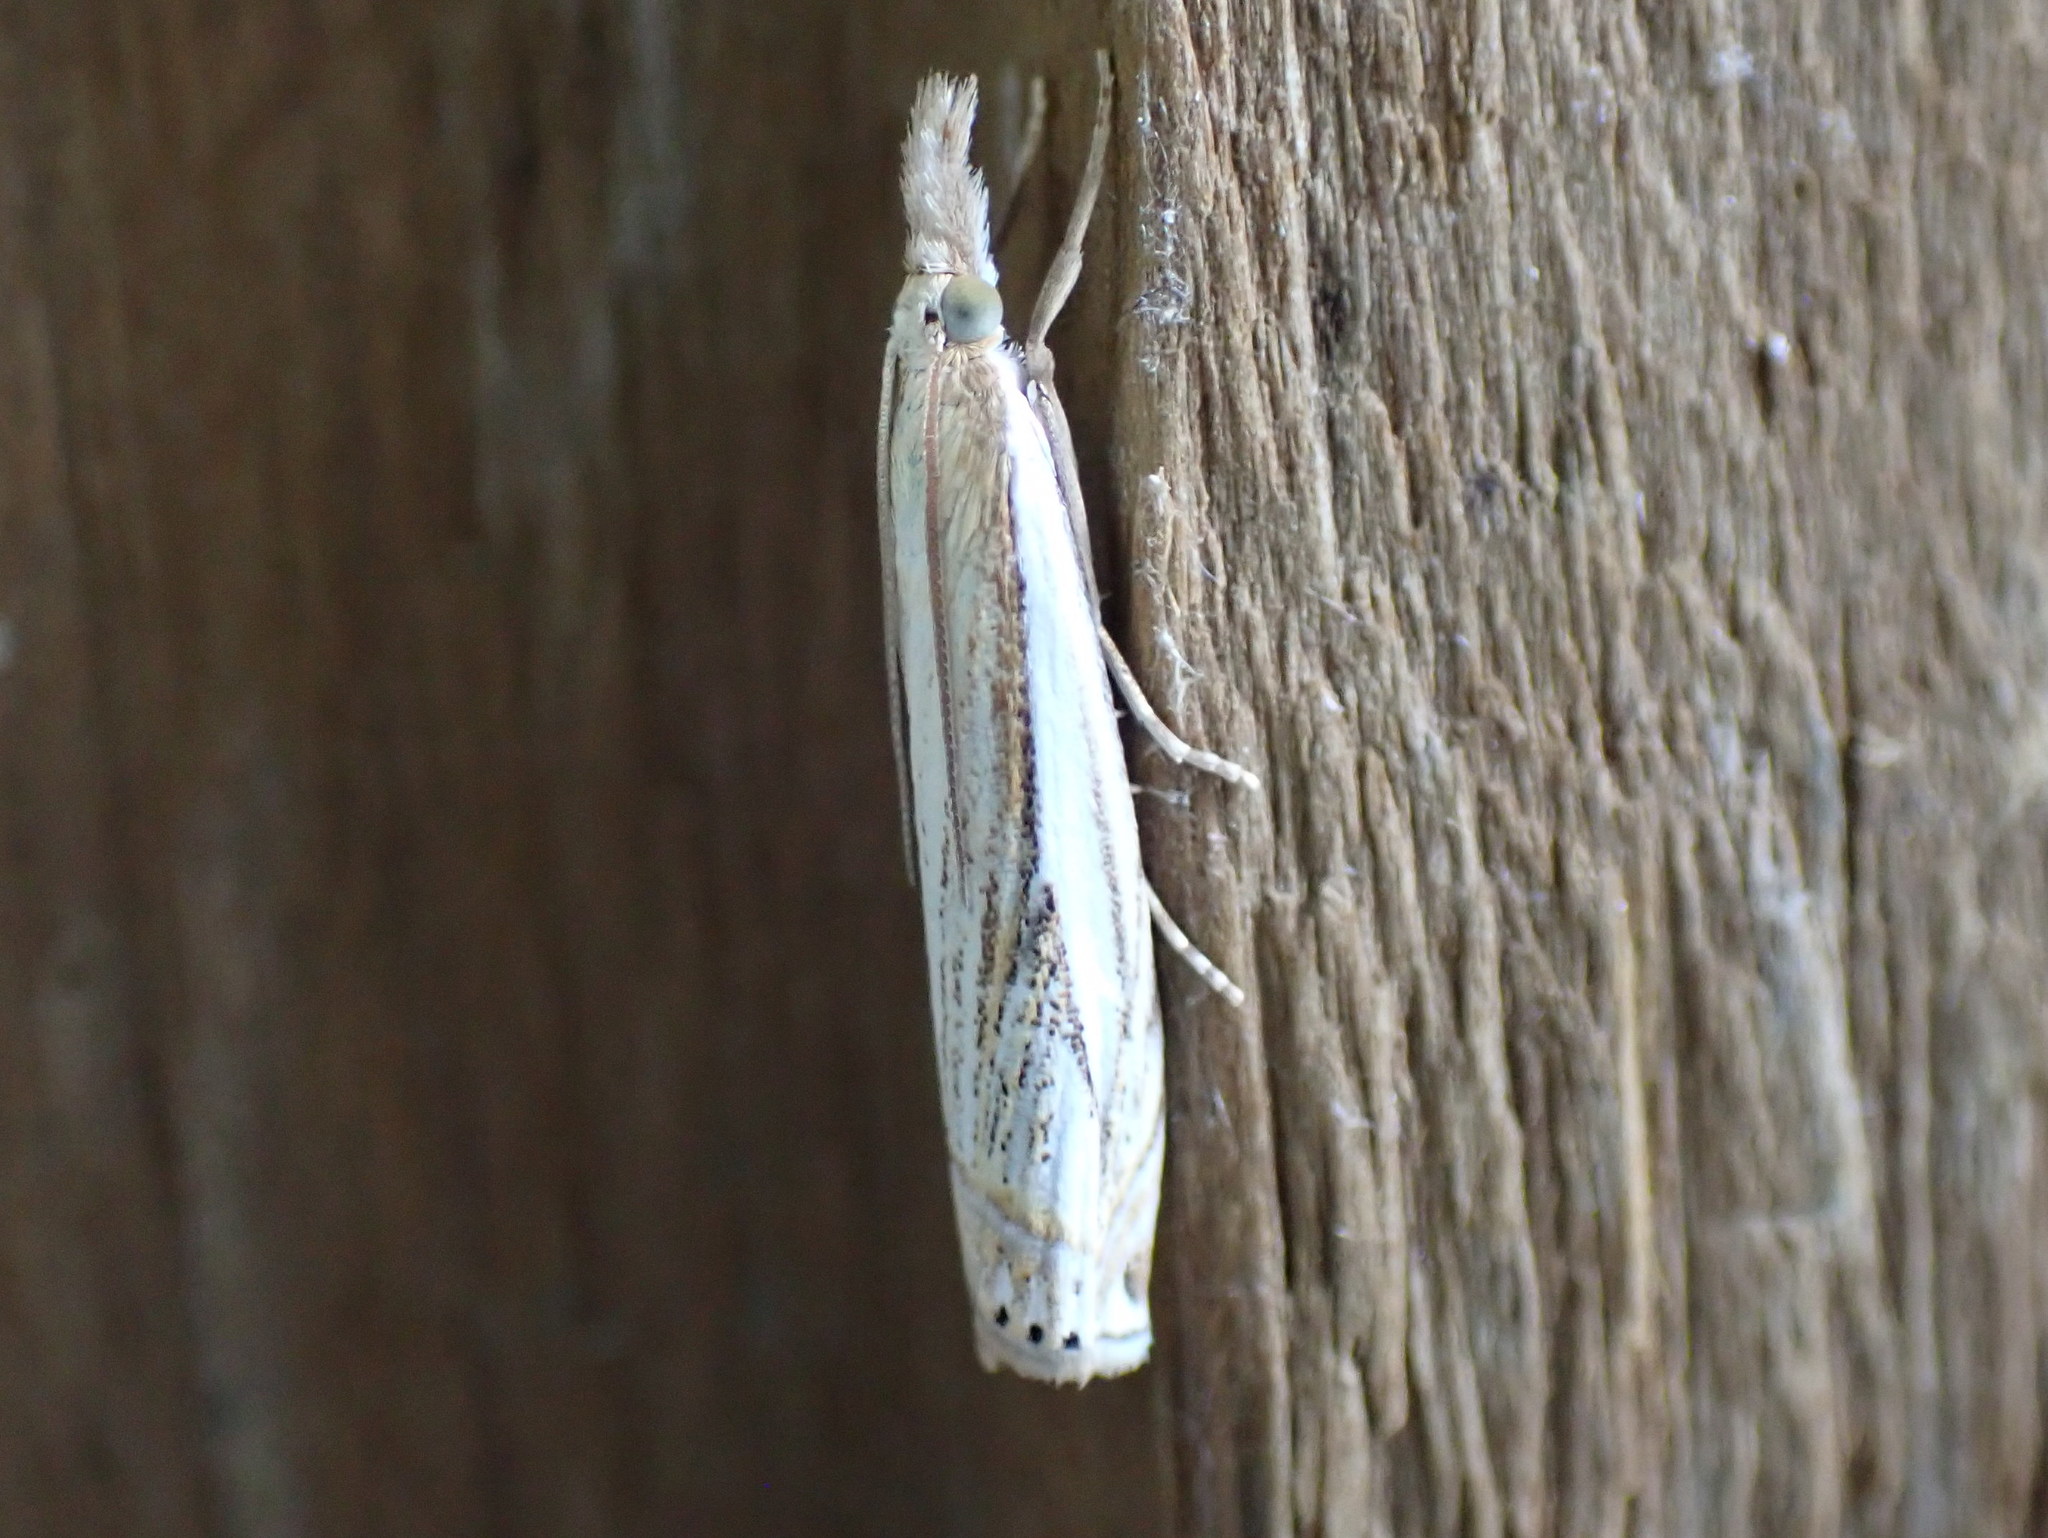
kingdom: Animalia
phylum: Arthropoda
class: Insecta
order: Lepidoptera
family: Crambidae
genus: Crambus
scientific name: Crambus saltuellus
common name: Pasture grass-veneer
